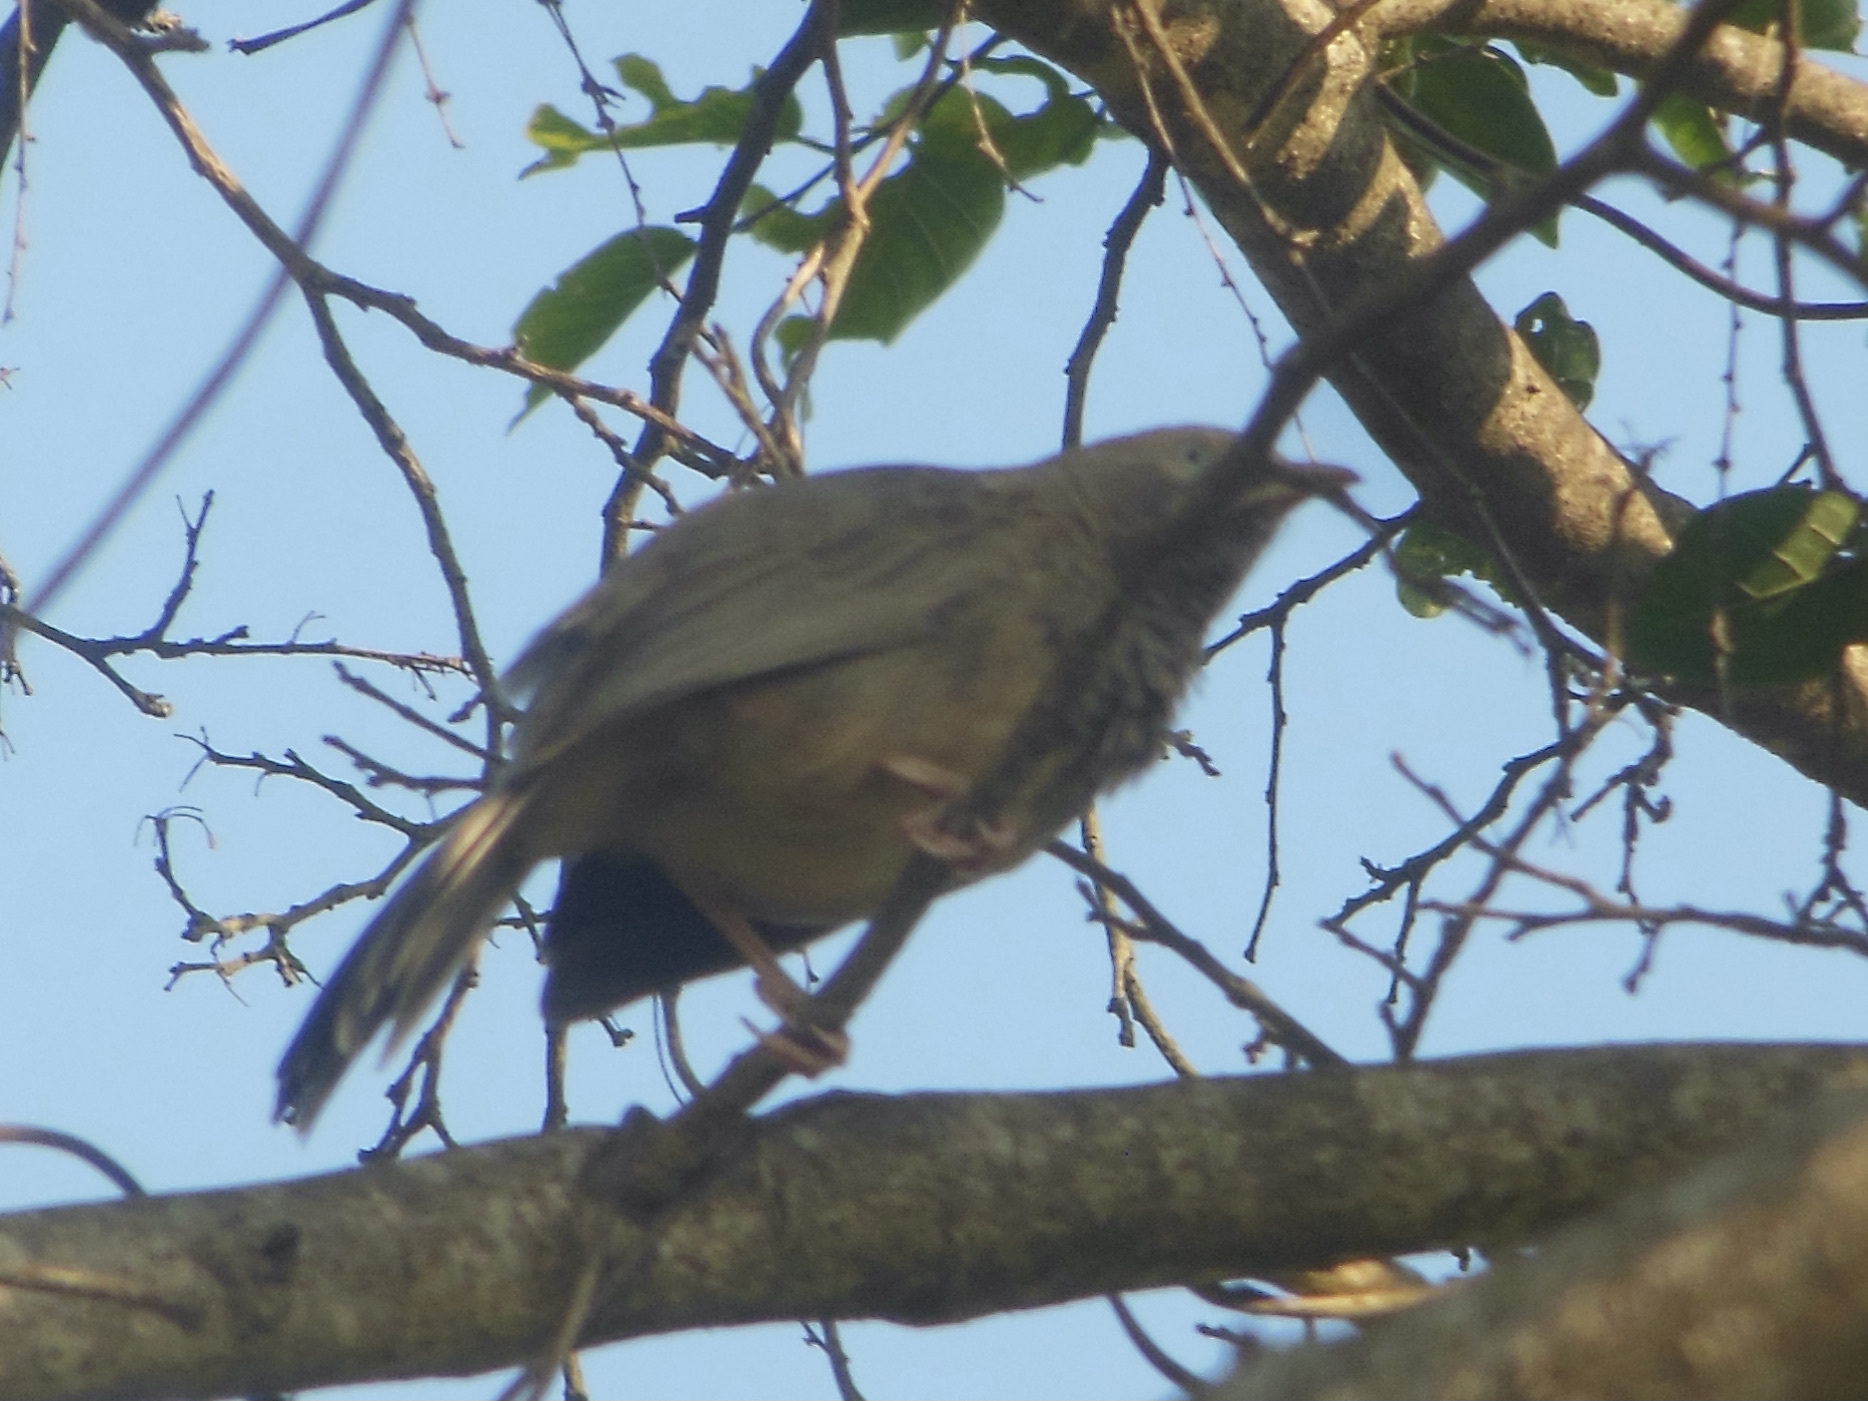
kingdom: Animalia
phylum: Chordata
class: Aves
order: Passeriformes
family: Leiothrichidae
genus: Turdoides
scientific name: Turdoides affinis
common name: Yellow-billed babbler
